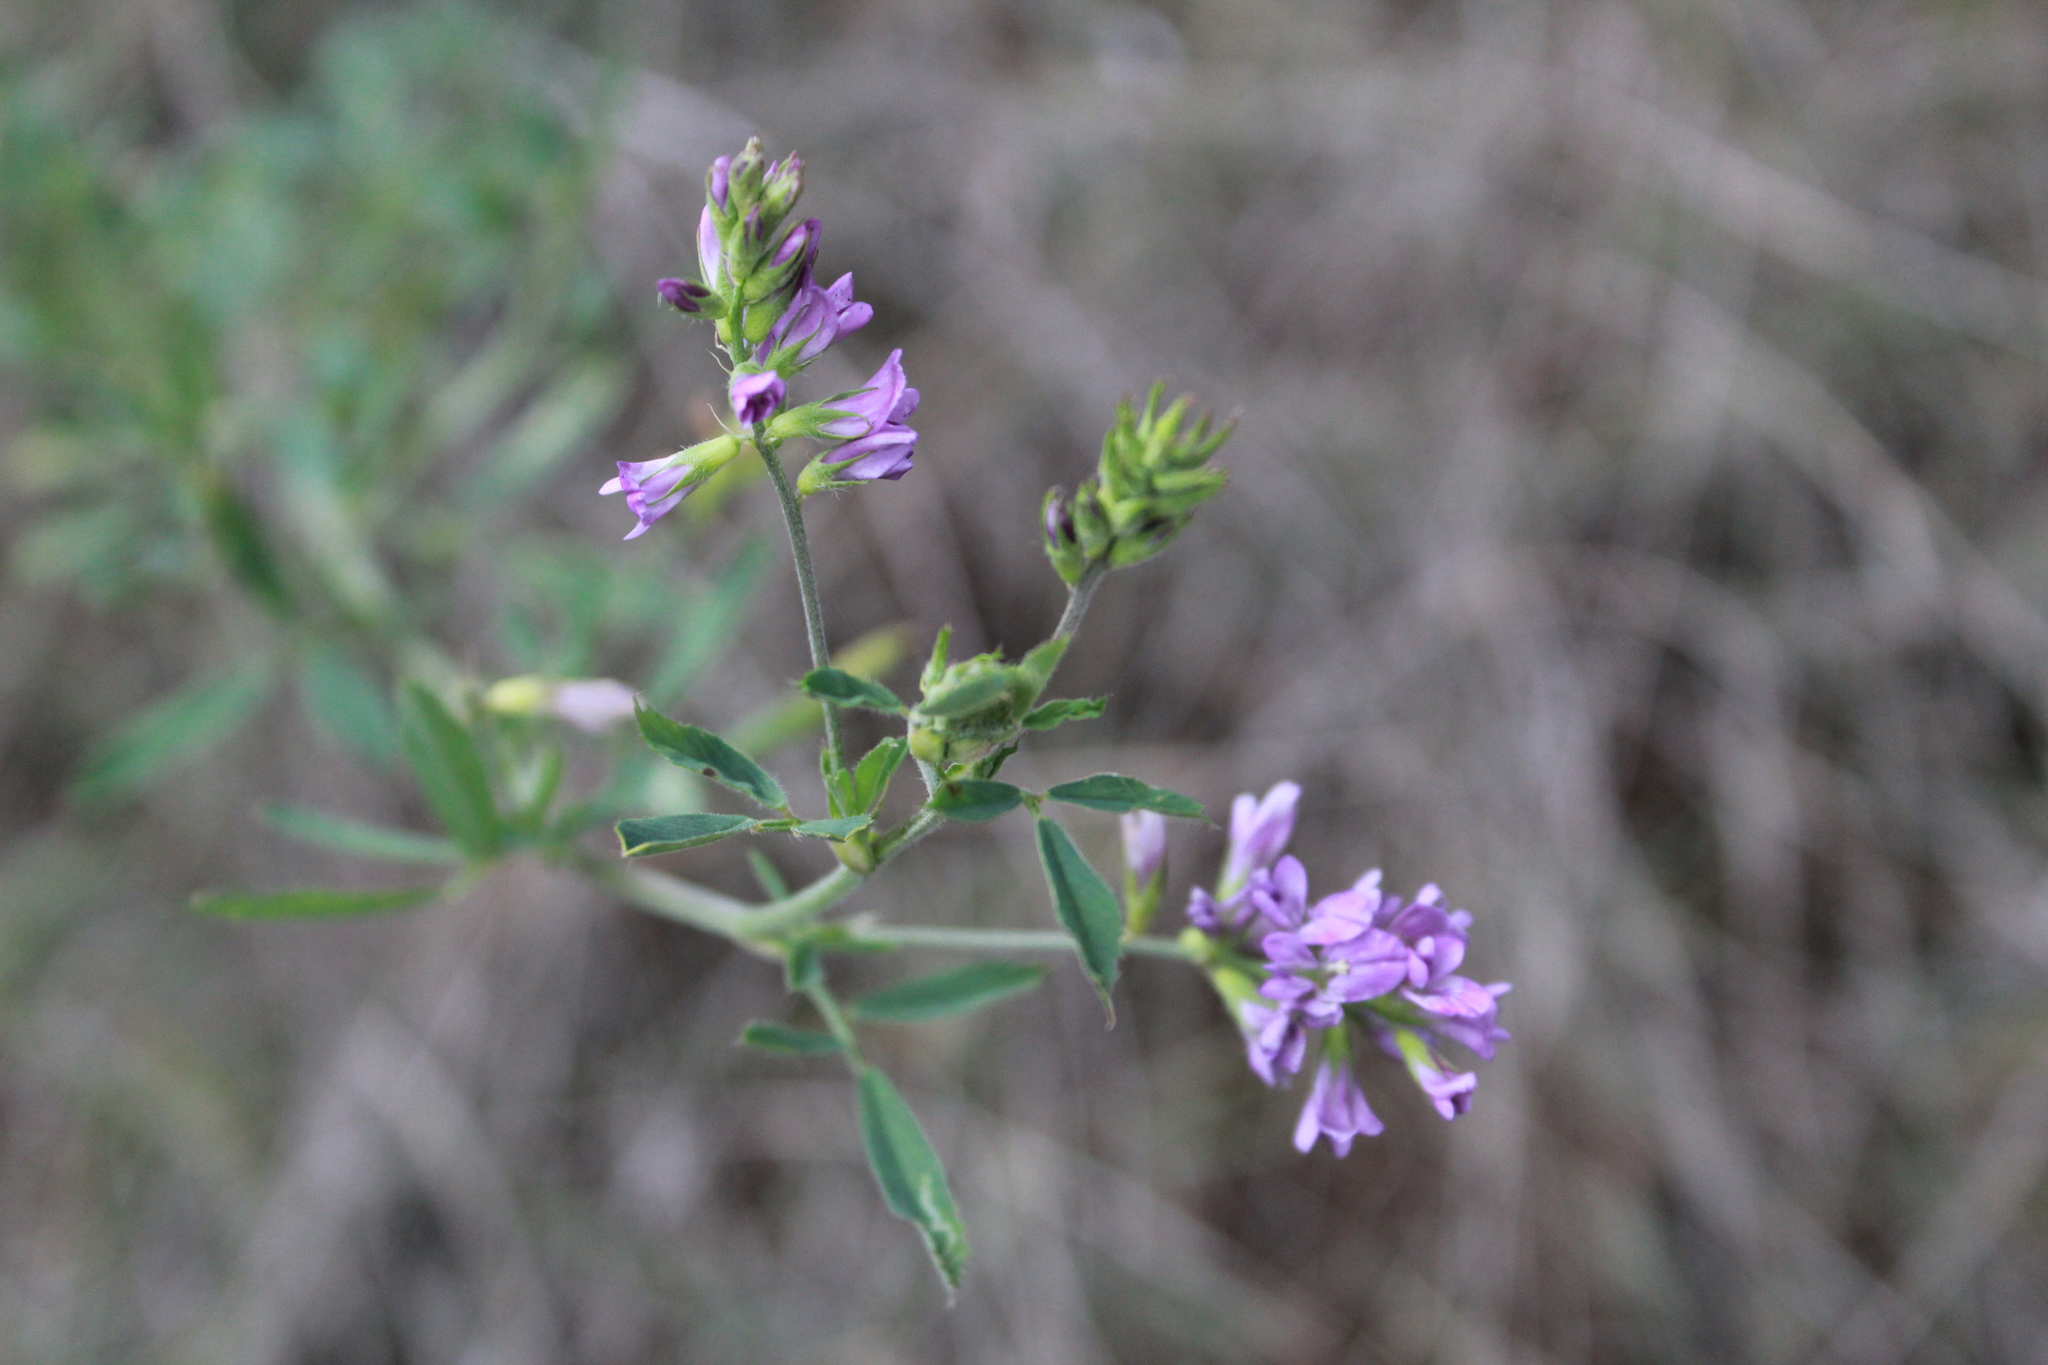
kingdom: Plantae
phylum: Tracheophyta
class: Magnoliopsida
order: Fabales
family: Fabaceae
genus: Medicago
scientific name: Medicago sativa
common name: Alfalfa
